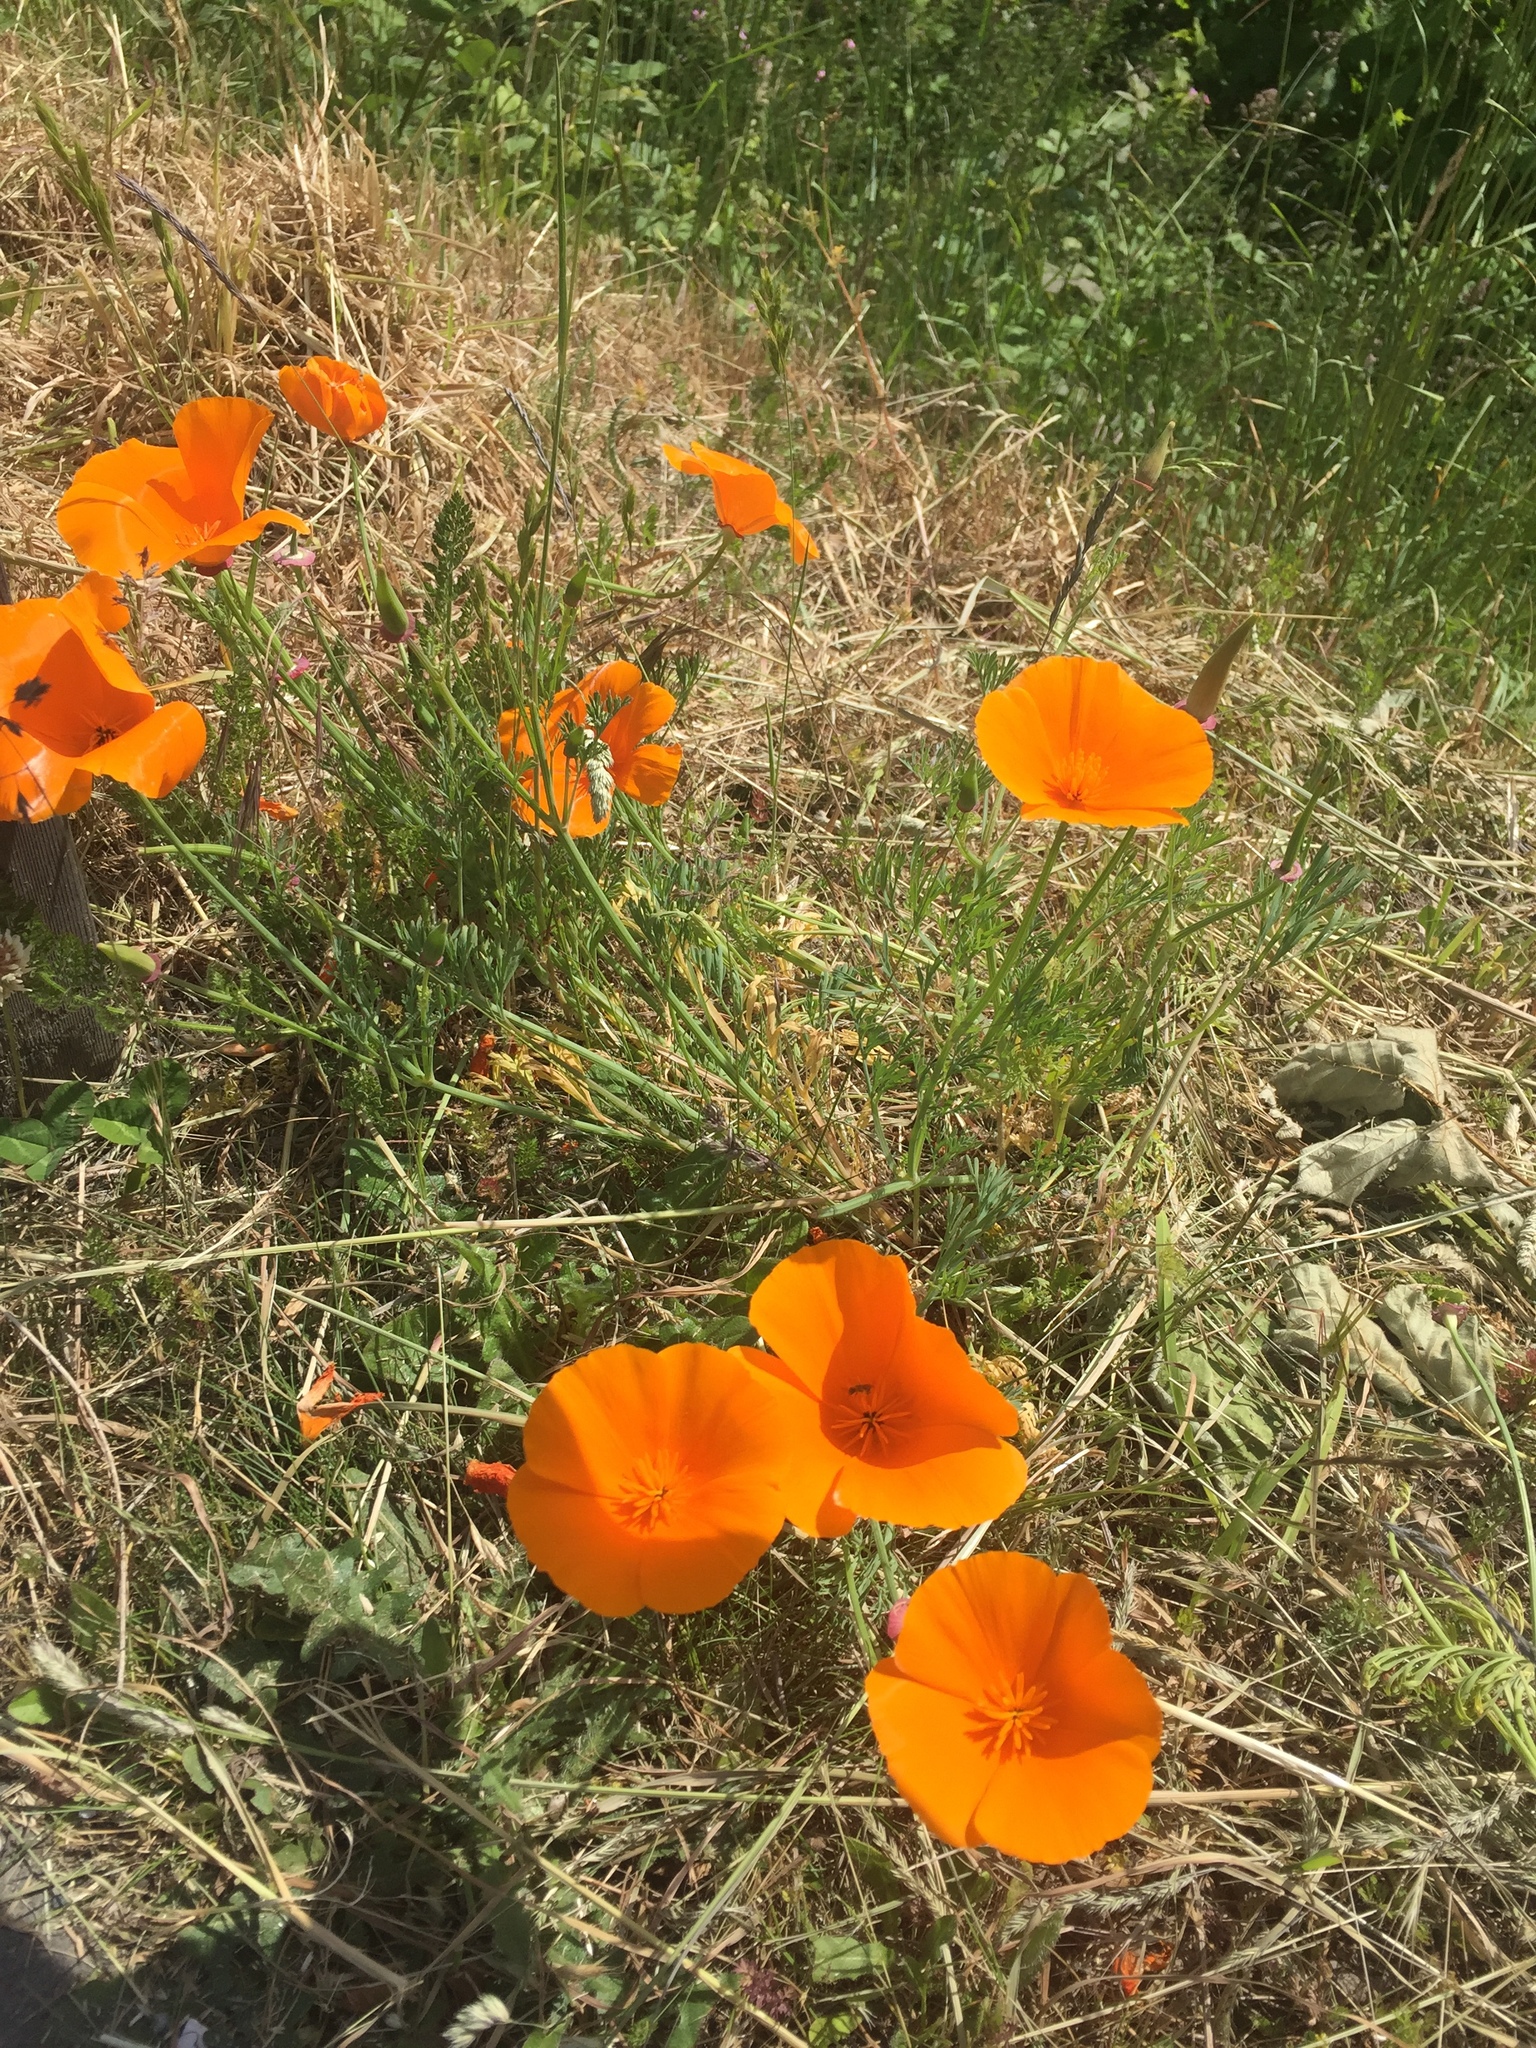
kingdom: Plantae
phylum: Tracheophyta
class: Magnoliopsida
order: Ranunculales
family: Papaveraceae
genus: Eschscholzia
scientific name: Eschscholzia californica
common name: California poppy
